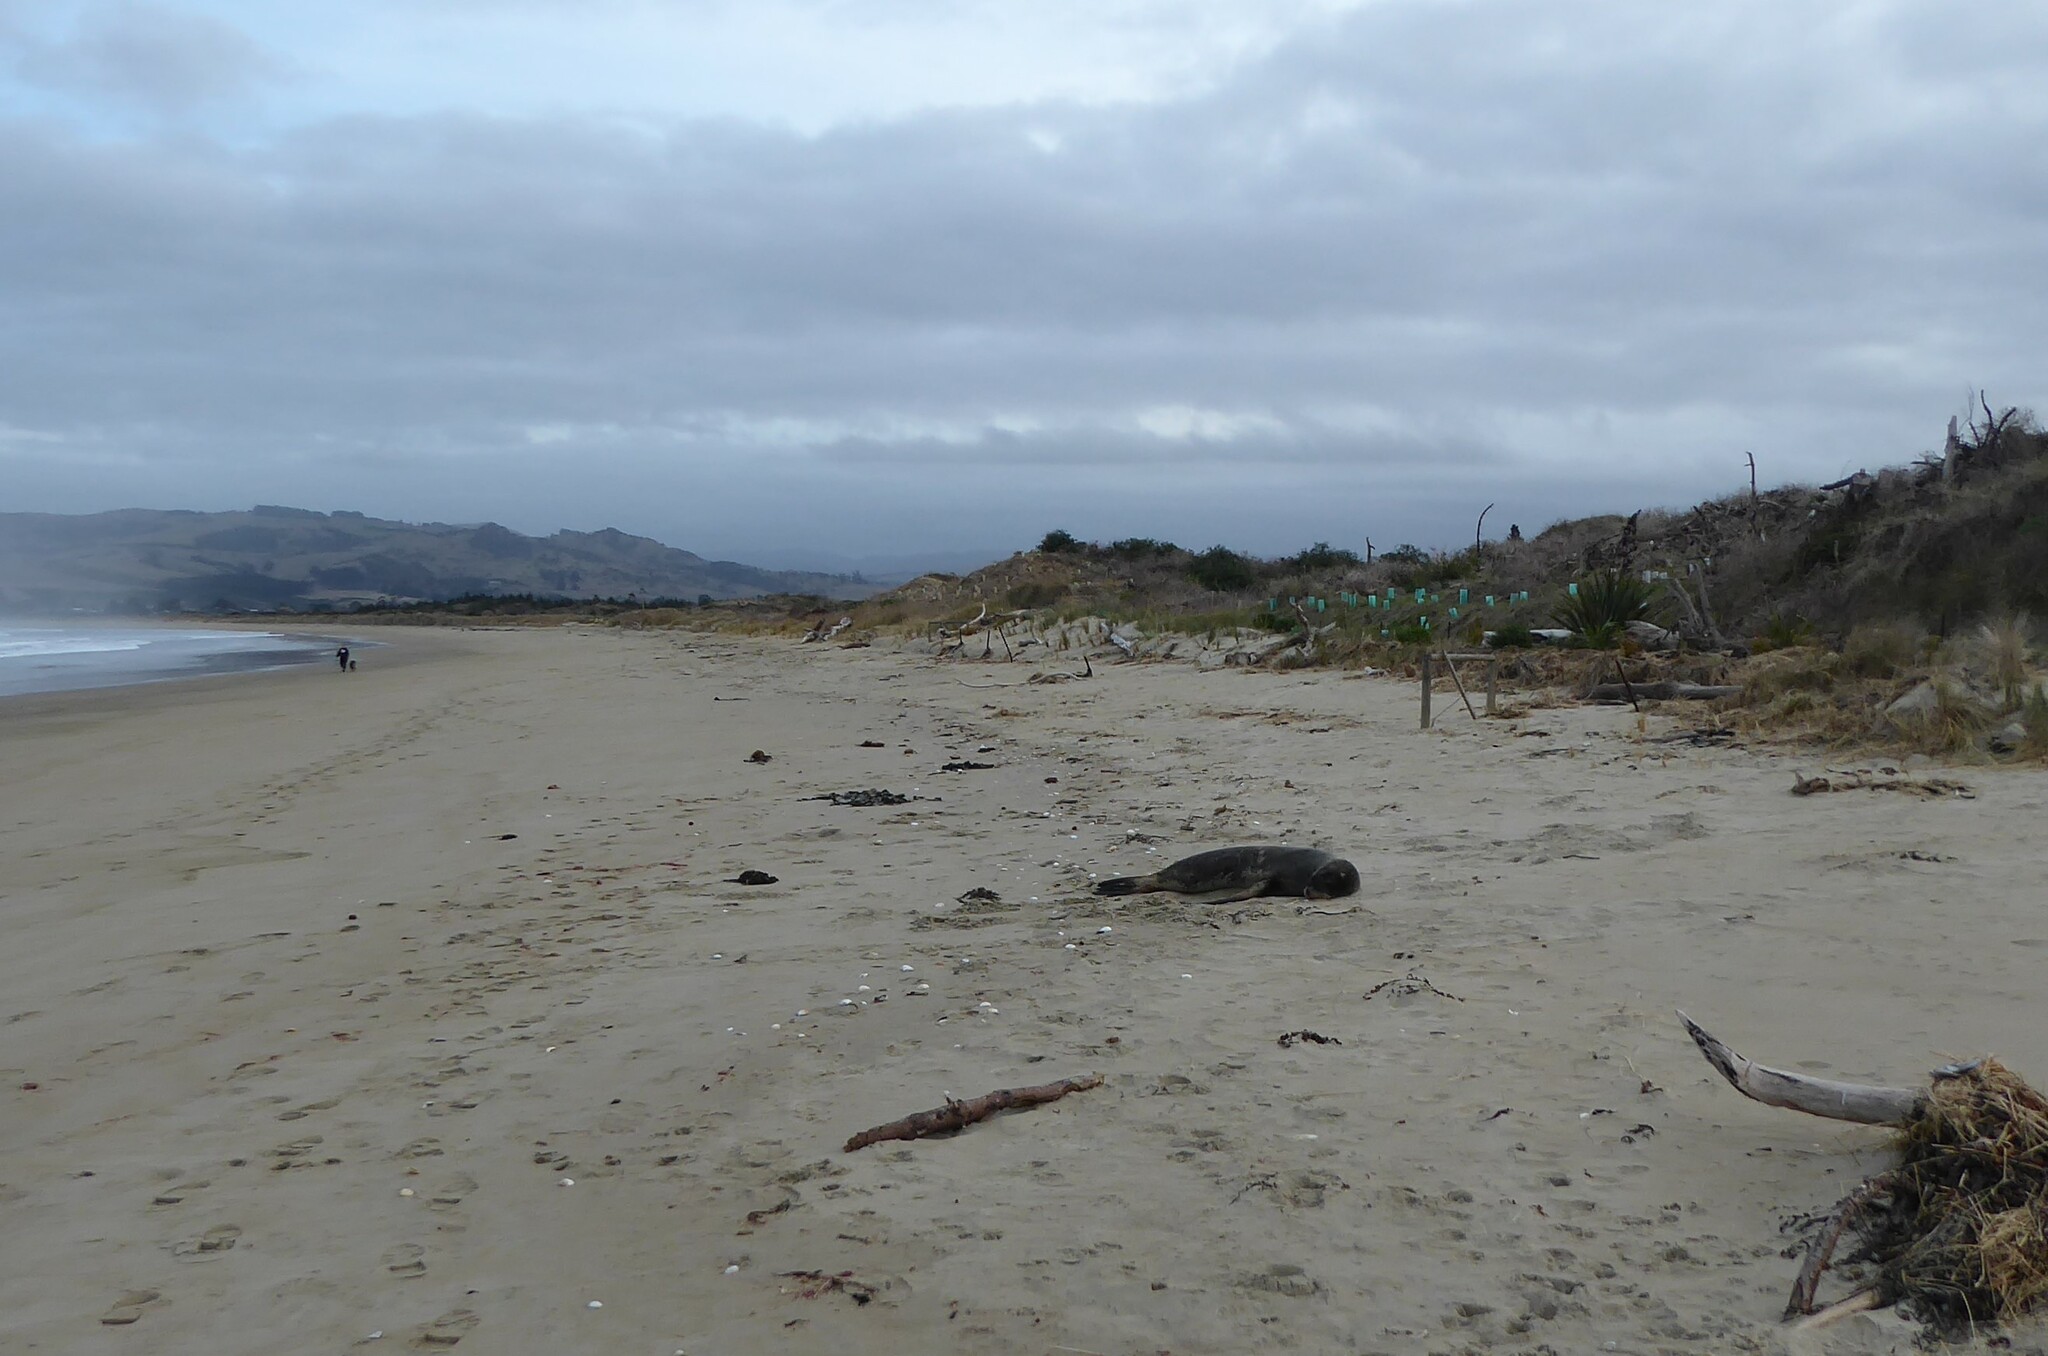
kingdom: Animalia
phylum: Chordata
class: Mammalia
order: Carnivora
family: Otariidae
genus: Phocarctos
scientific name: Phocarctos hookeri
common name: New zealand sea lion
